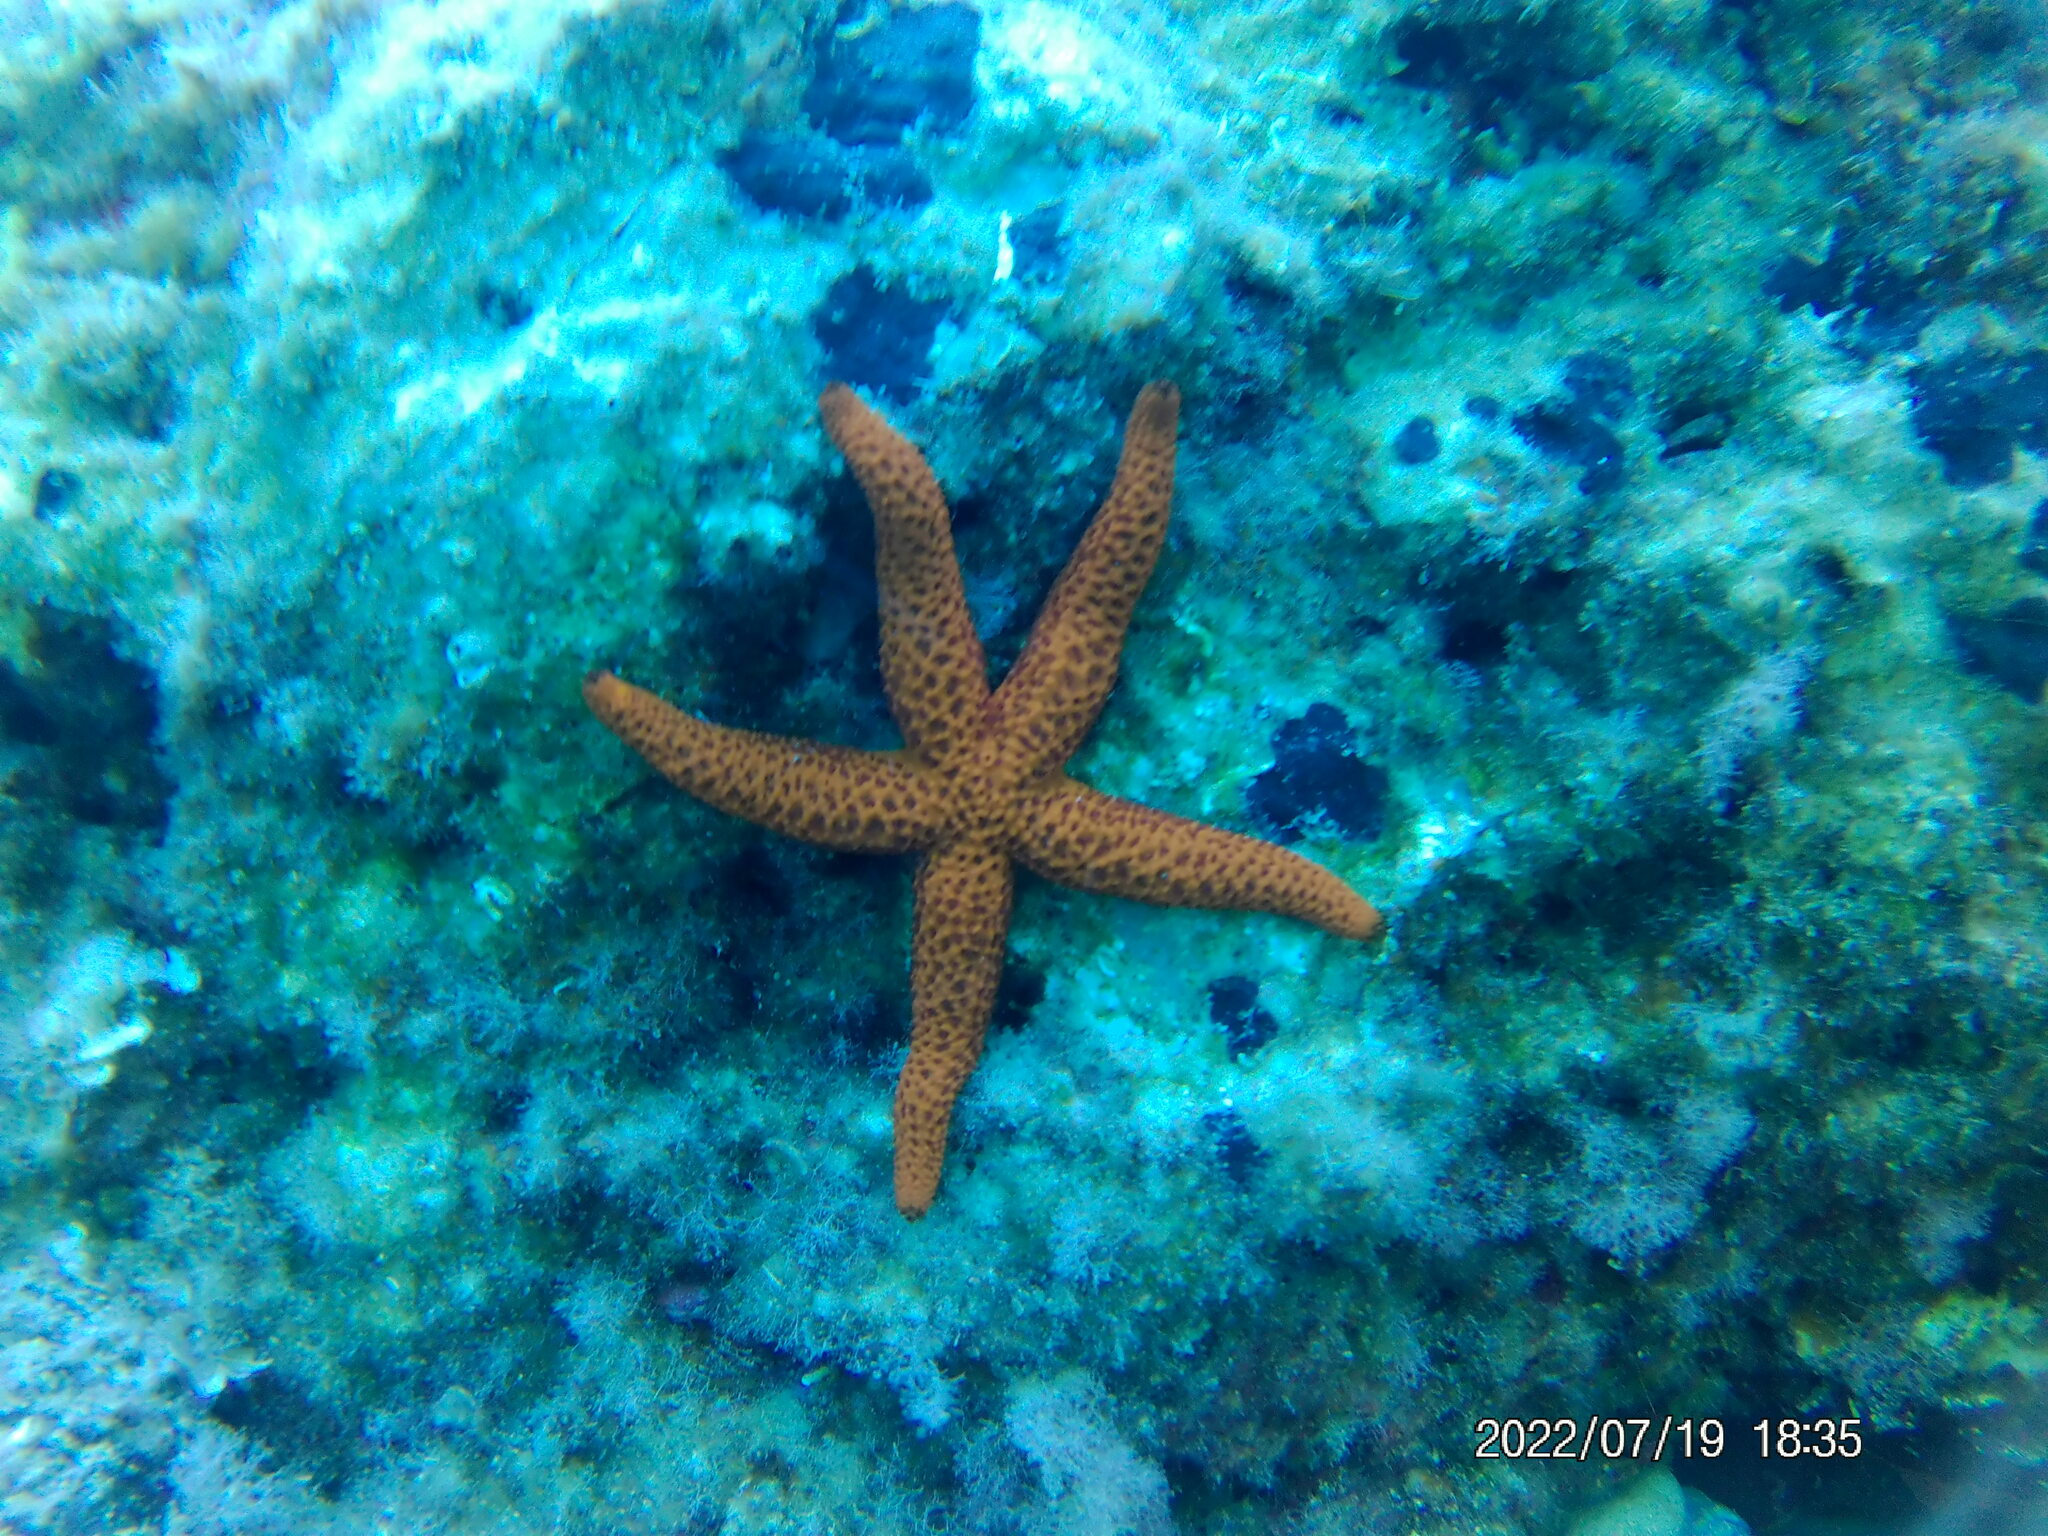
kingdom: Animalia
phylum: Echinodermata
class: Asteroidea
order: Spinulosida
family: Echinasteridae
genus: Echinaster
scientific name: Echinaster sepositus
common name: Red starfish
